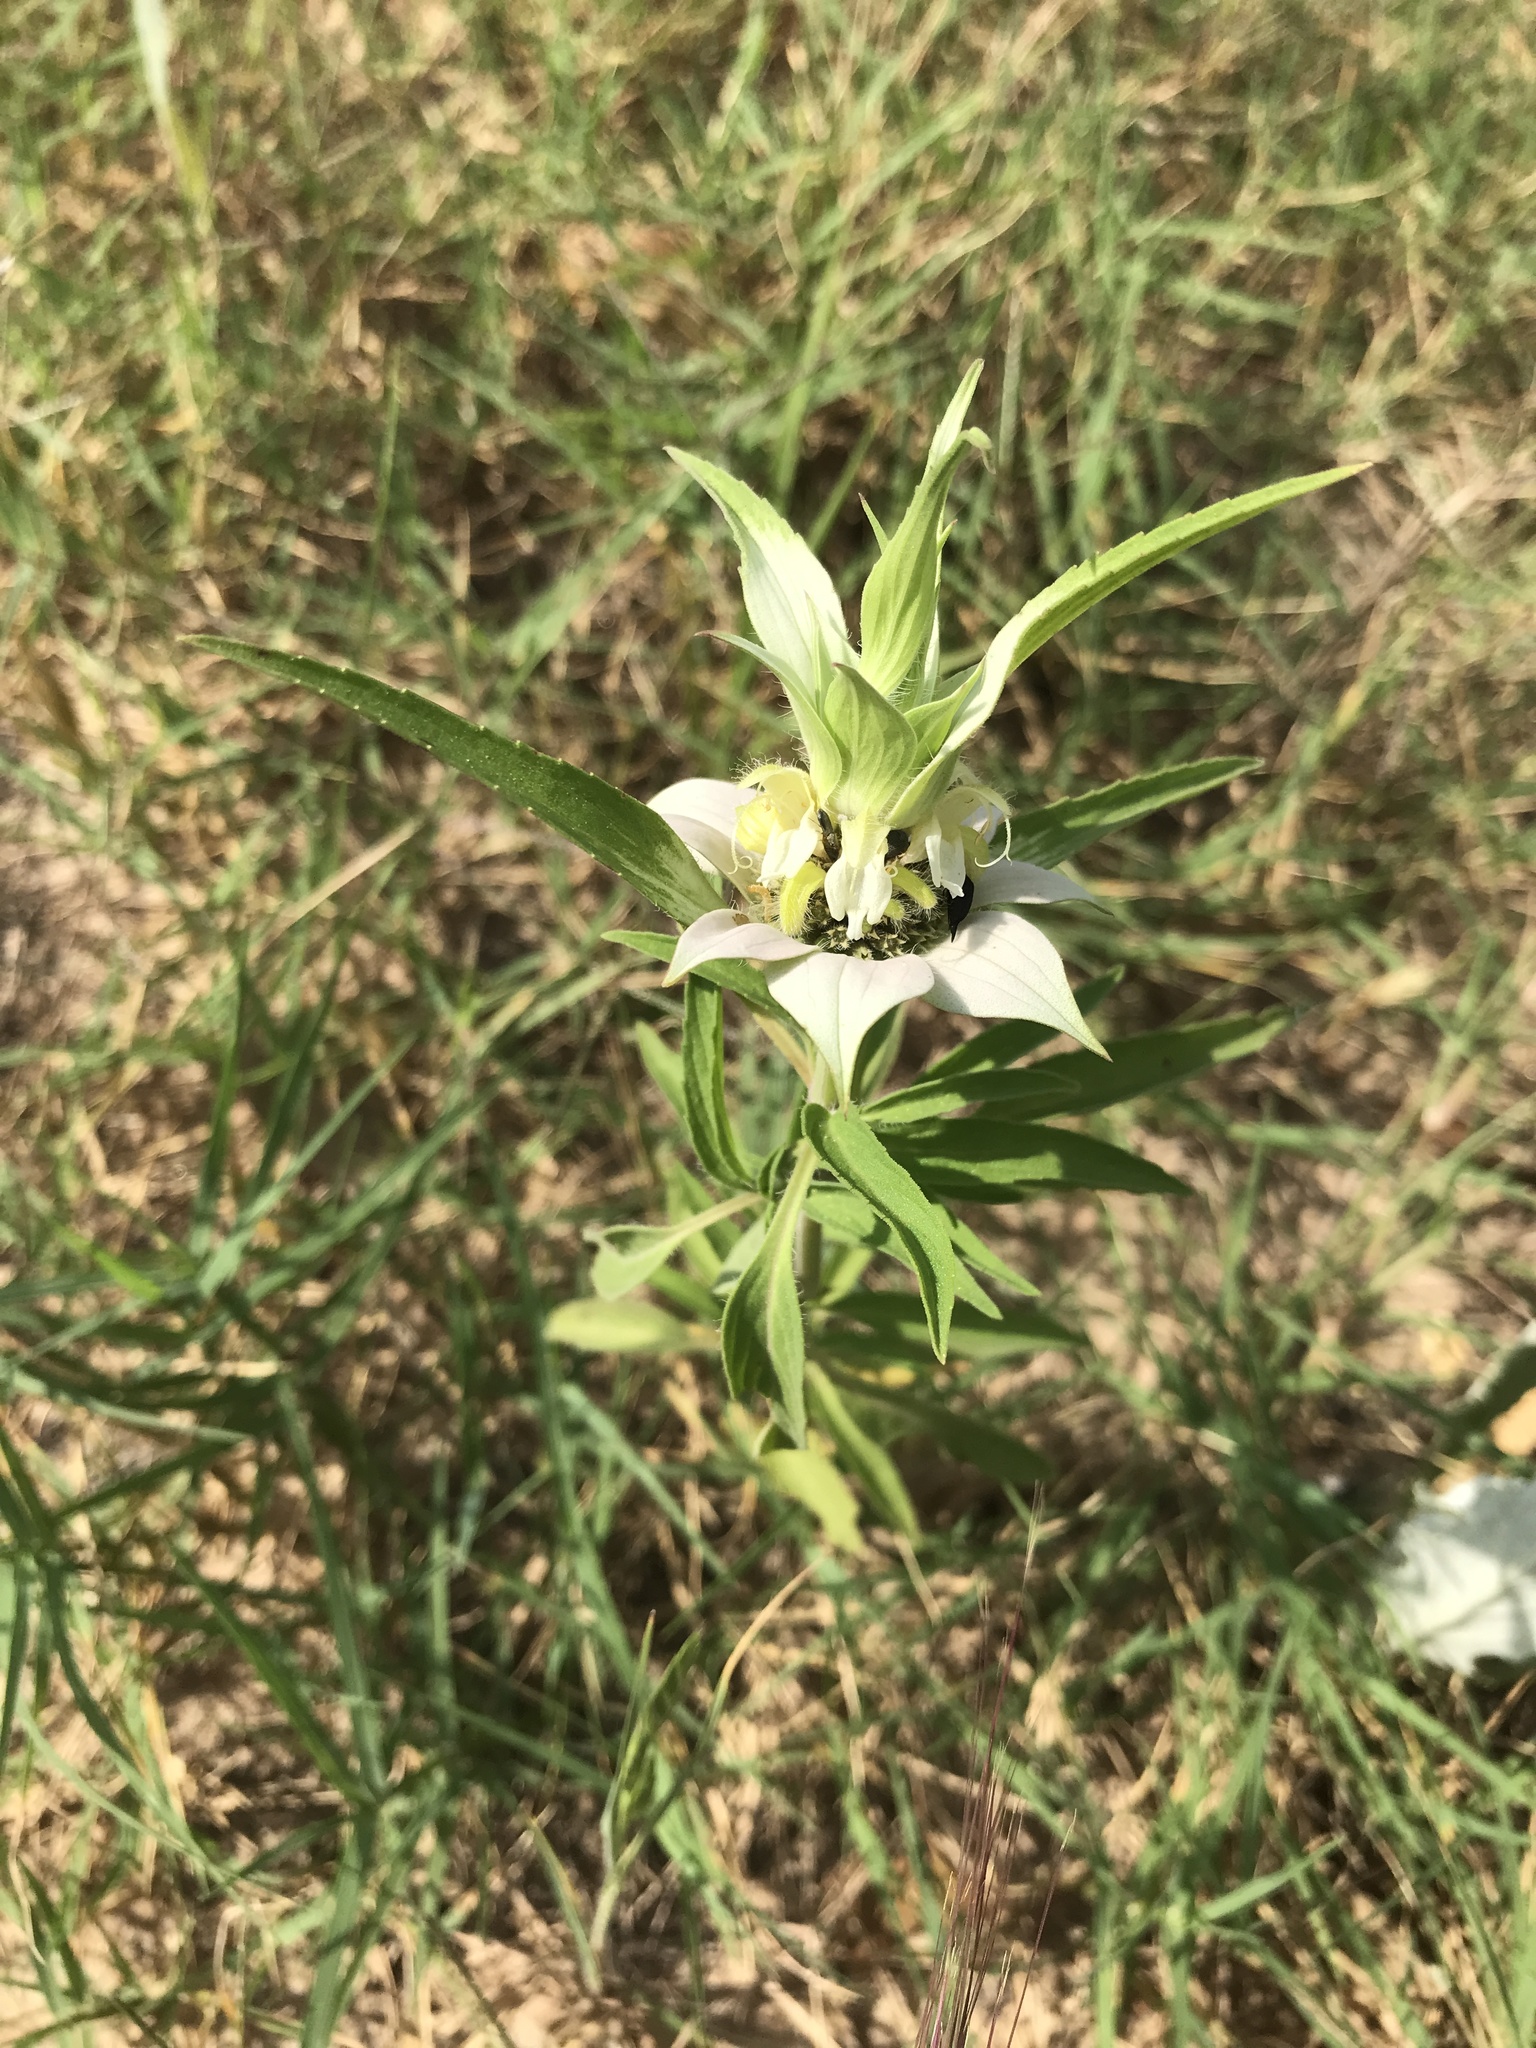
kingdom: Plantae
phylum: Tracheophyta
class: Magnoliopsida
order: Lamiales
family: Lamiaceae
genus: Monarda
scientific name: Monarda punctata
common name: Dotted monarda
